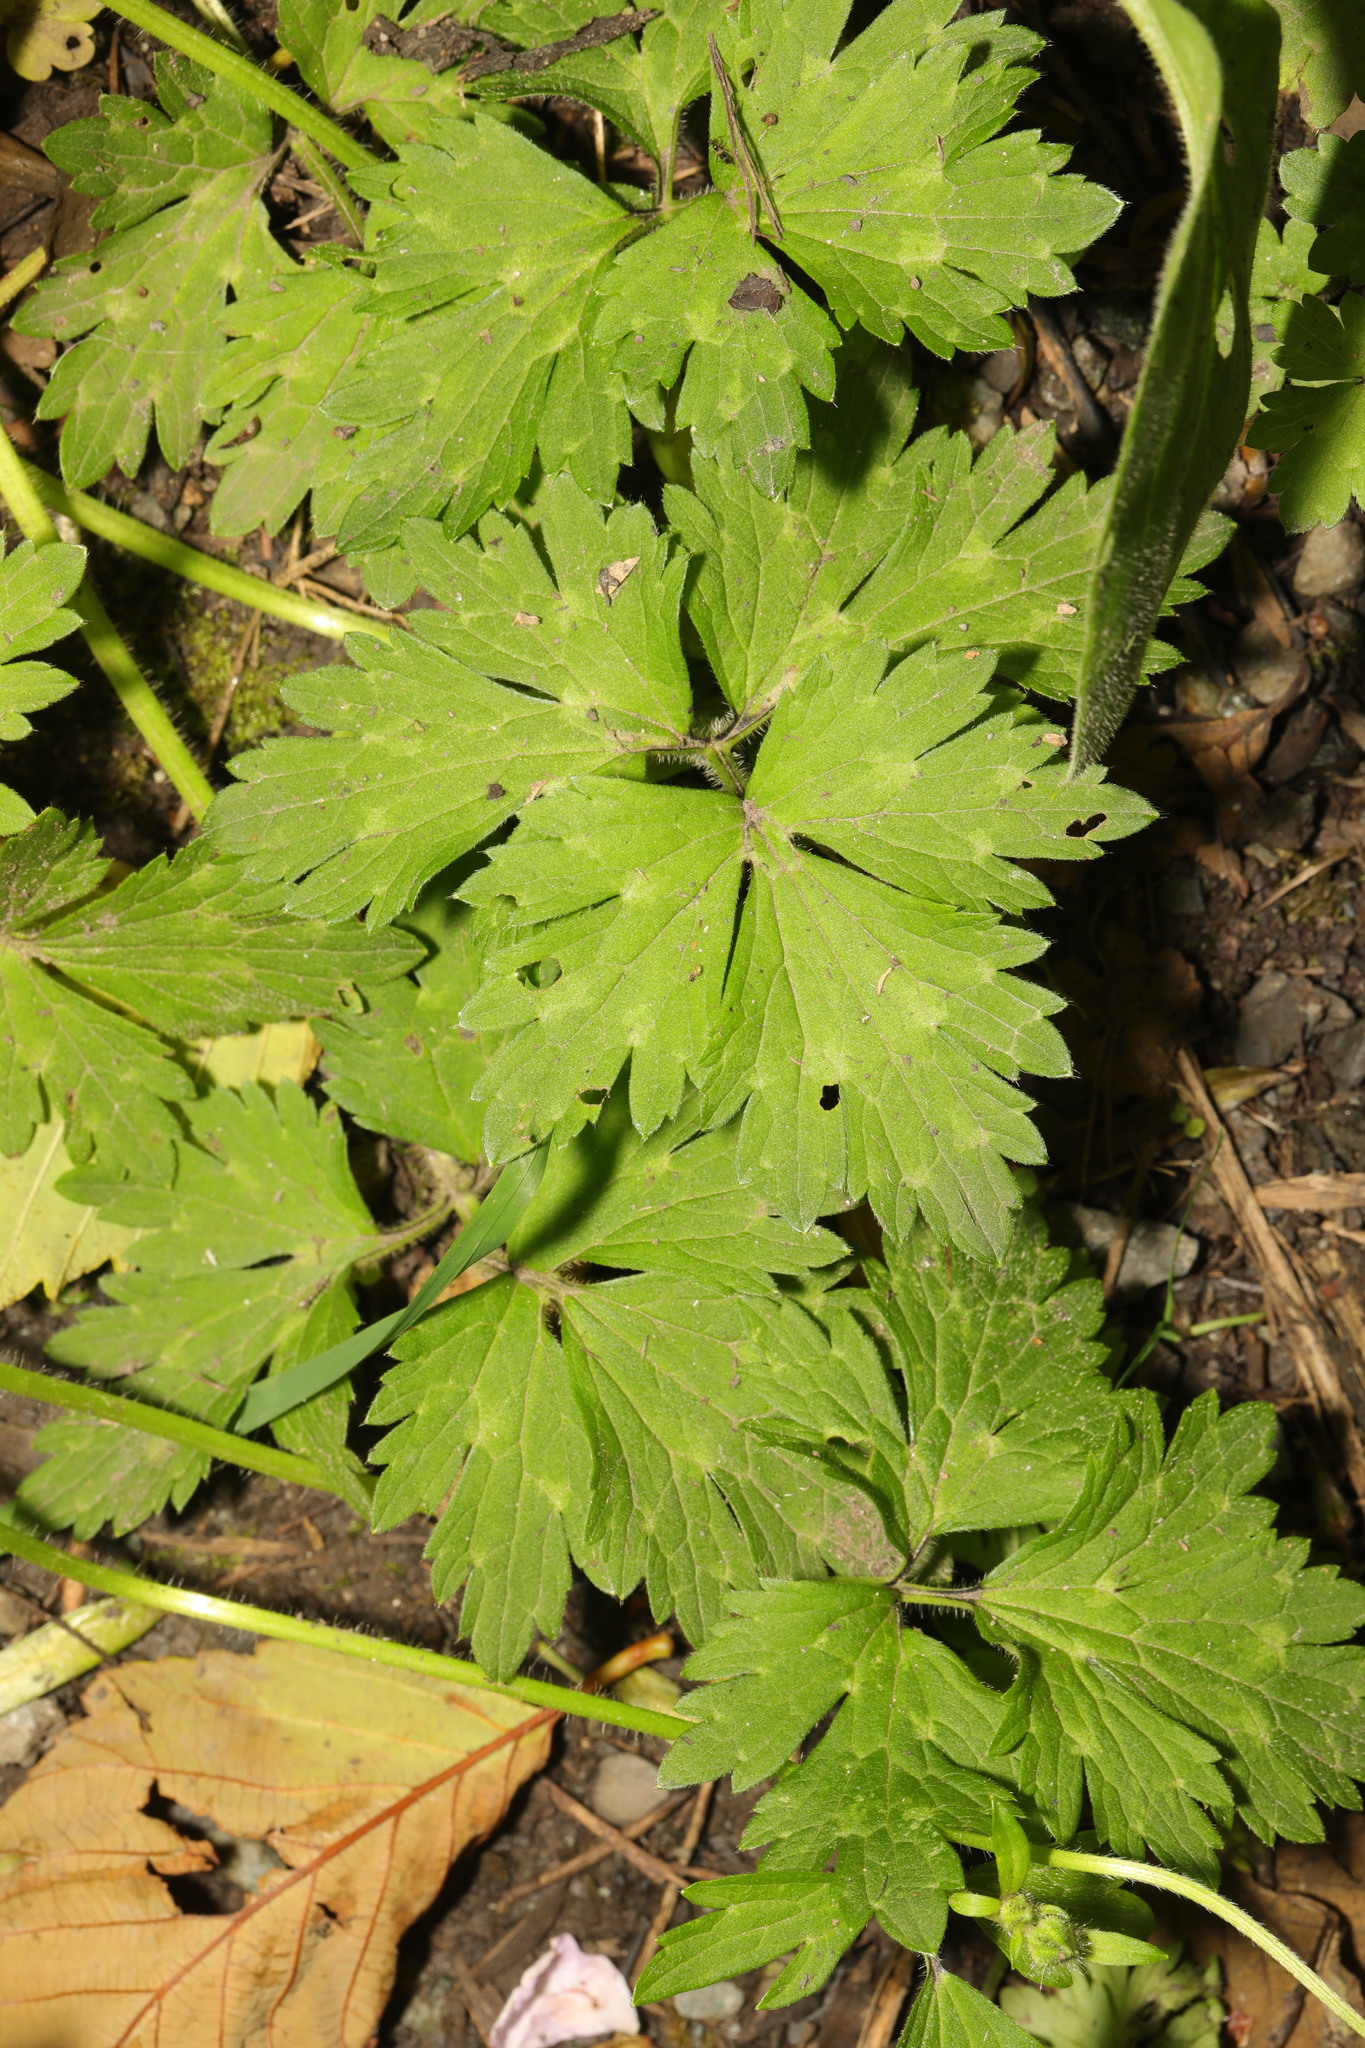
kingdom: Plantae
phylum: Tracheophyta
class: Magnoliopsida
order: Ranunculales
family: Ranunculaceae
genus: Ranunculus
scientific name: Ranunculus repens
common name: Creeping buttercup
